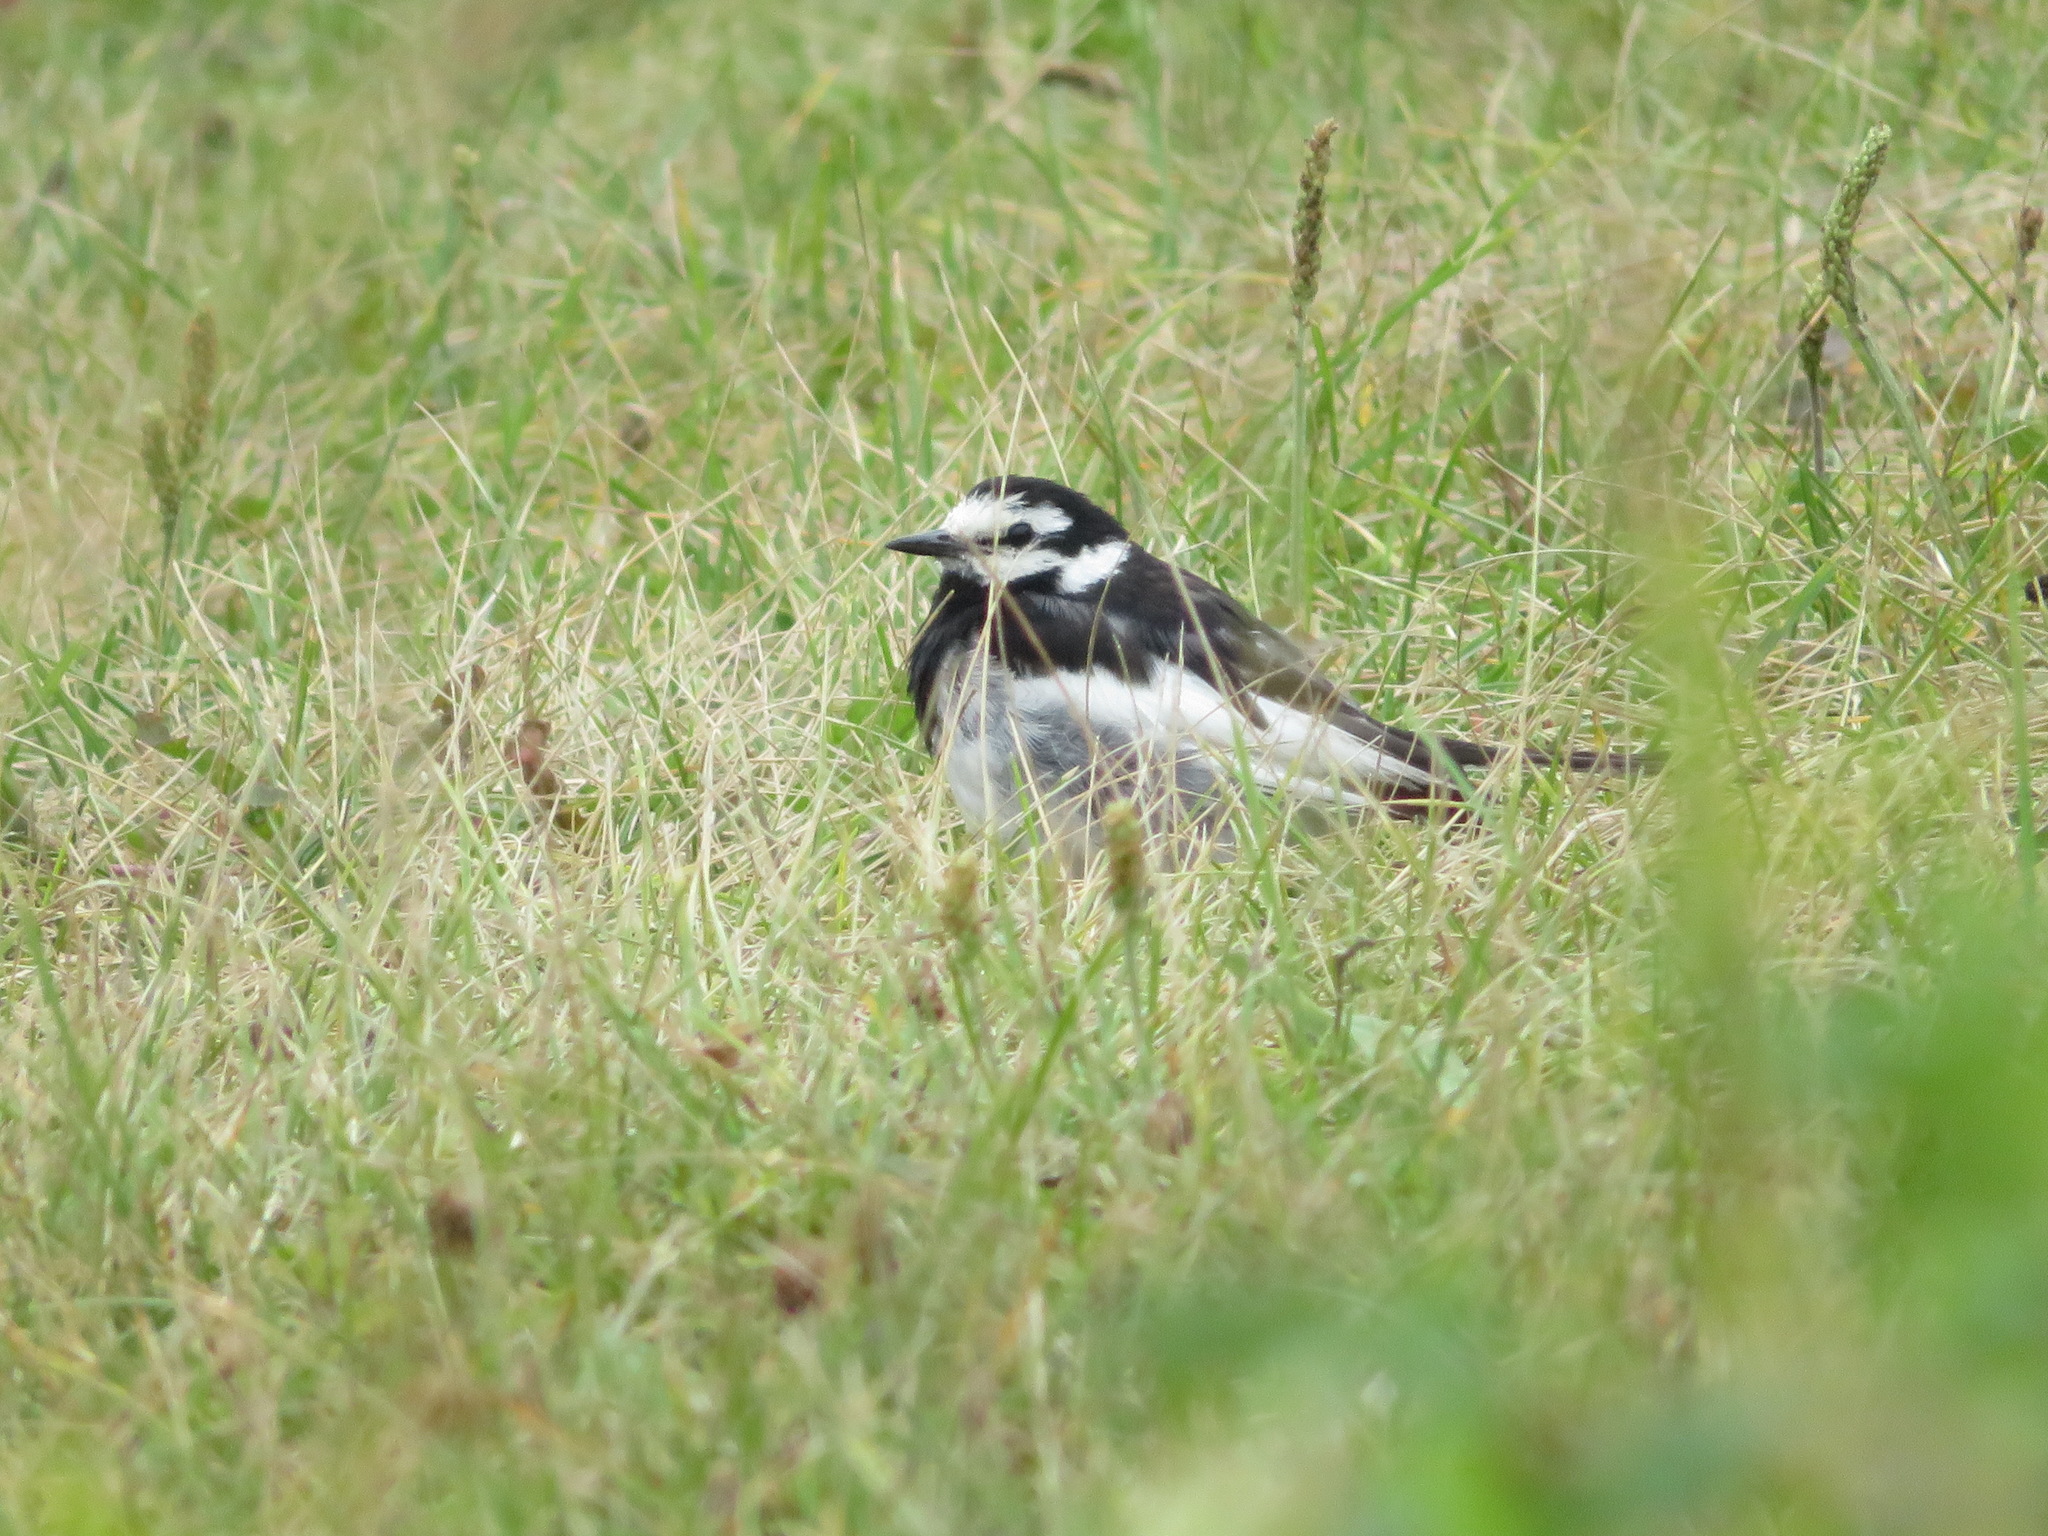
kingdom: Animalia
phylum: Chordata
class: Aves
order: Passeriformes
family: Motacillidae
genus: Motacilla
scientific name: Motacilla alba
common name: White wagtail
